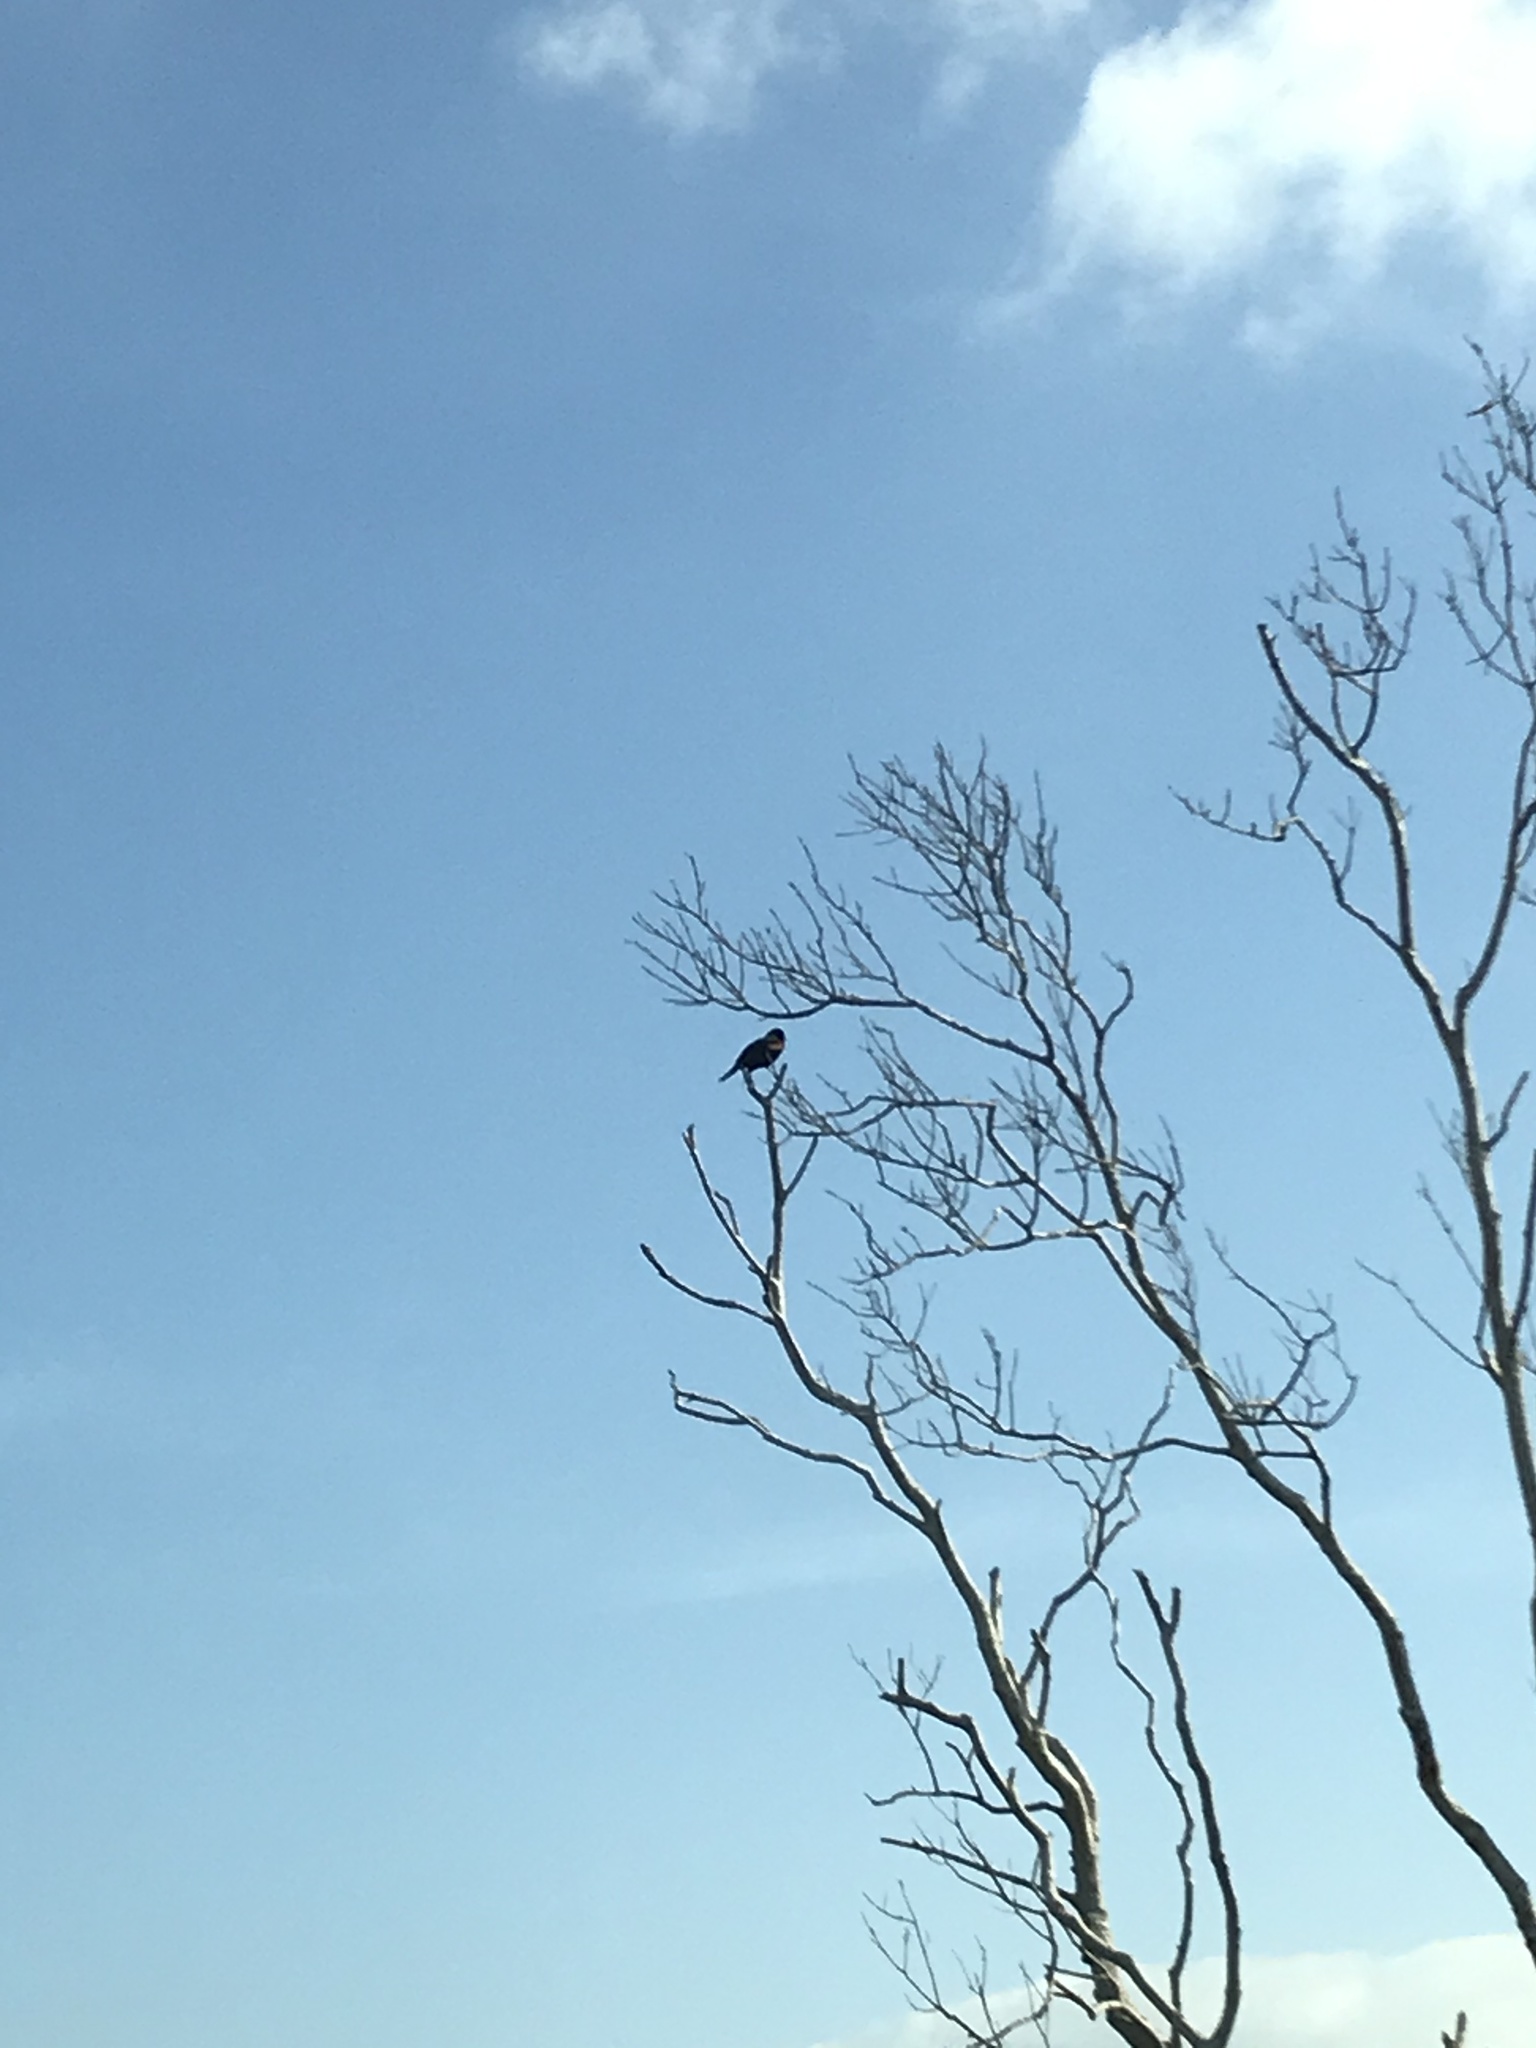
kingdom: Animalia
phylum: Chordata
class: Aves
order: Passeriformes
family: Icteridae
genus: Agelaius
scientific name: Agelaius phoeniceus
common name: Red-winged blackbird
